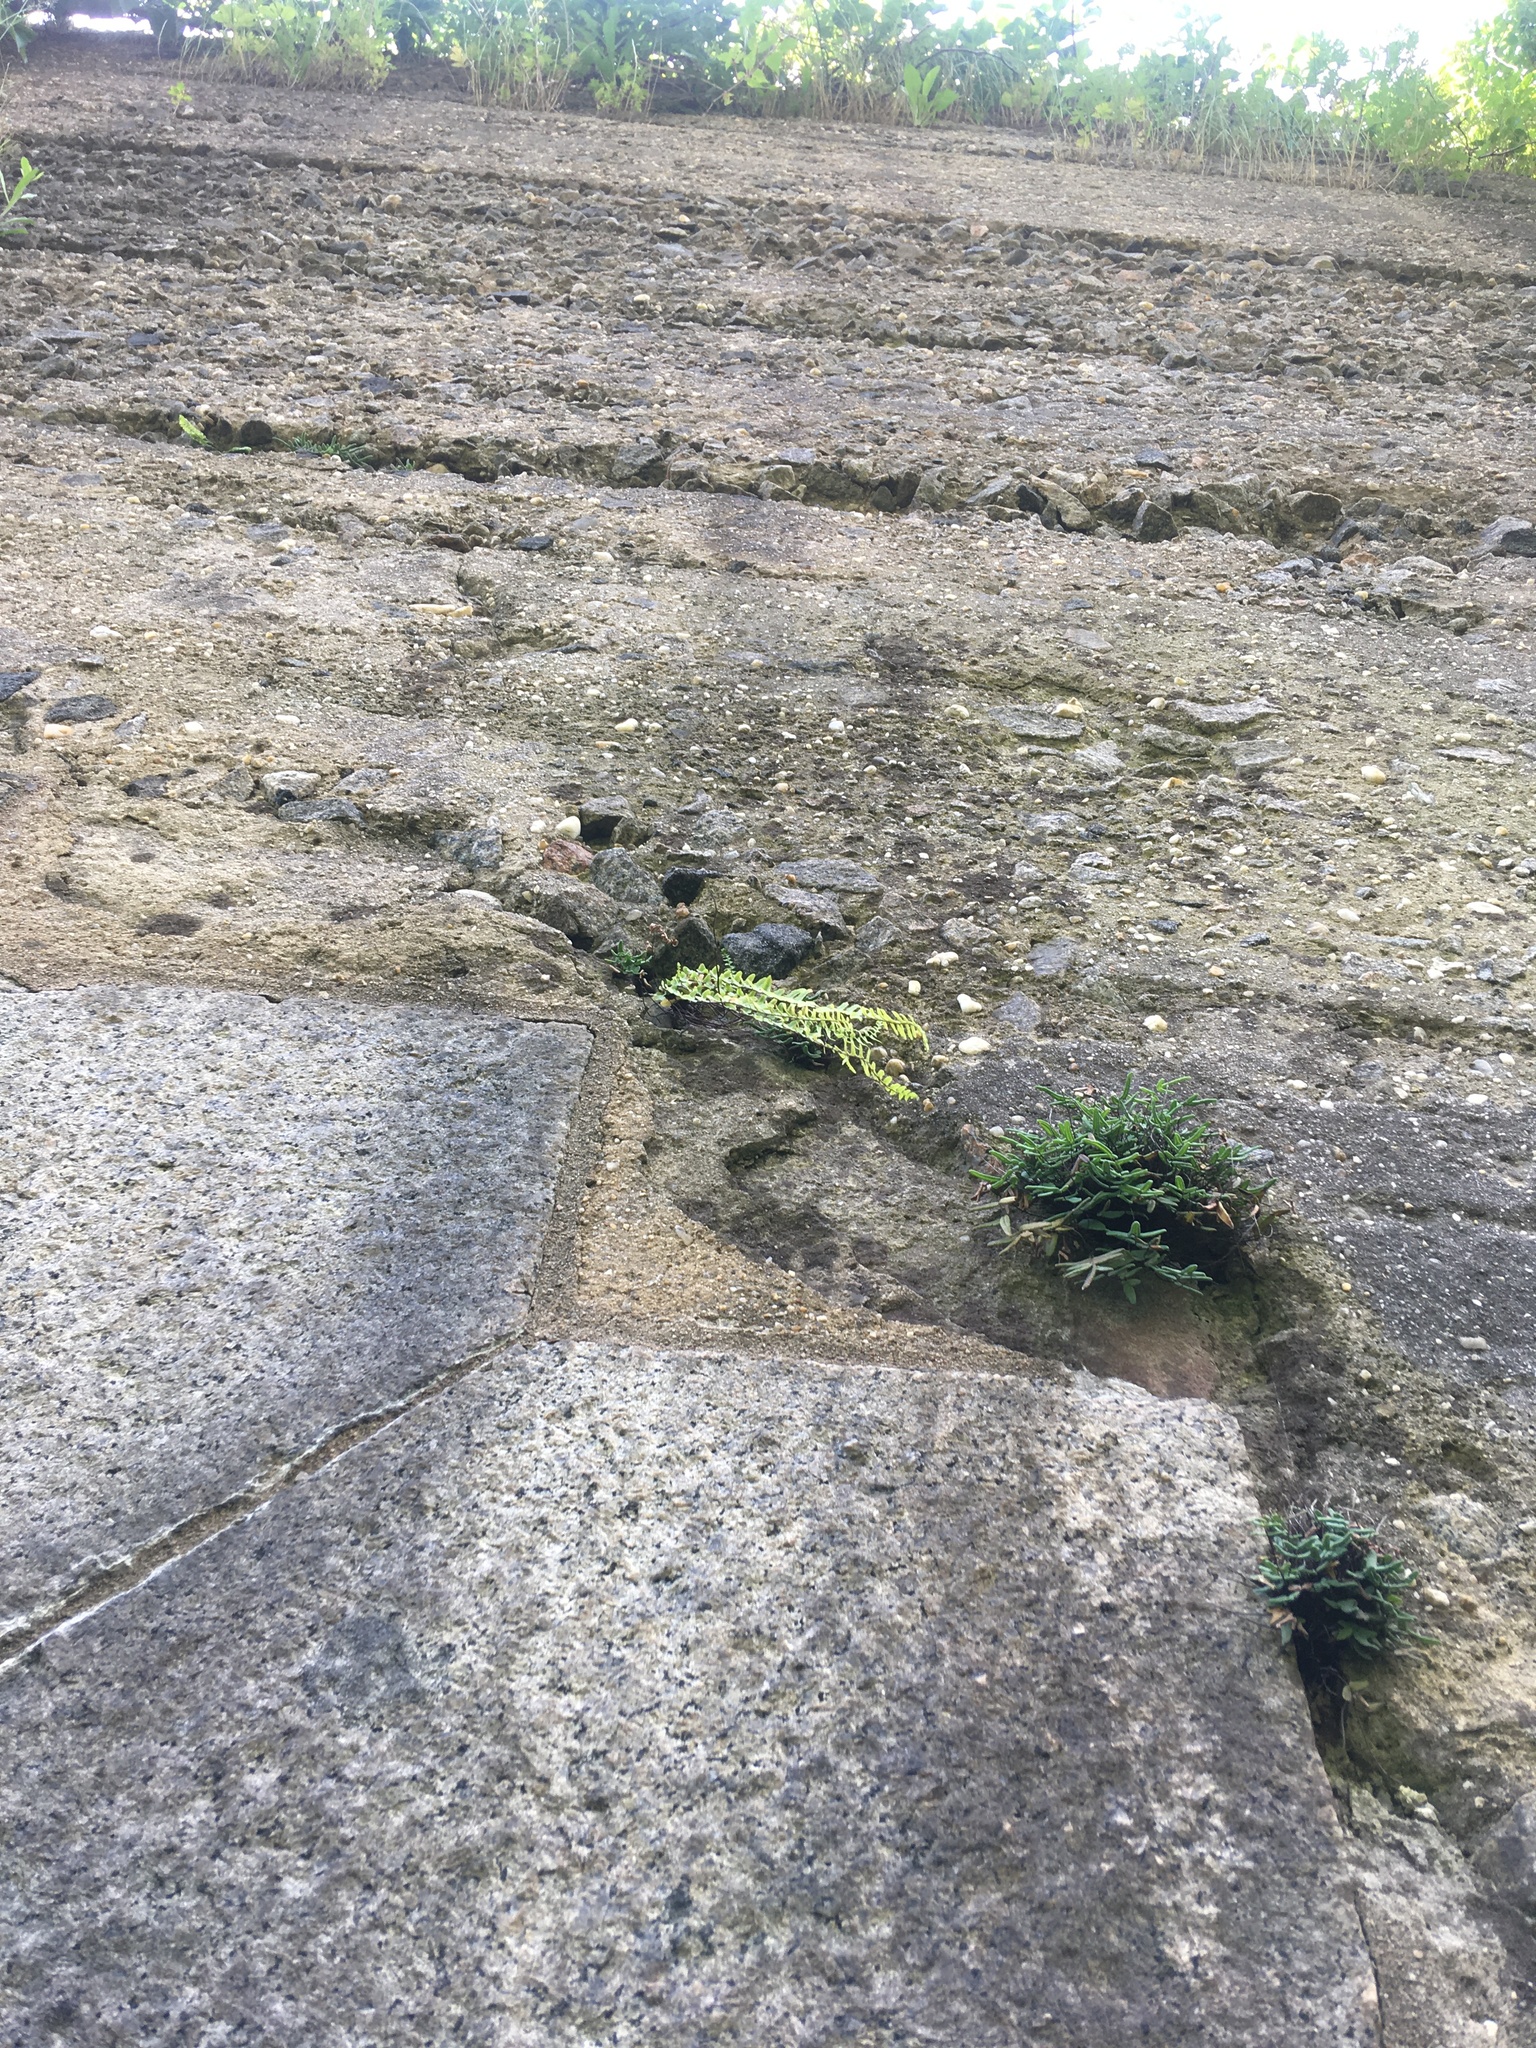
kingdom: Plantae
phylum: Tracheophyta
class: Polypodiopsida
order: Polypodiales
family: Pteridaceae
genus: Pellaea
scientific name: Pellaea glabella
